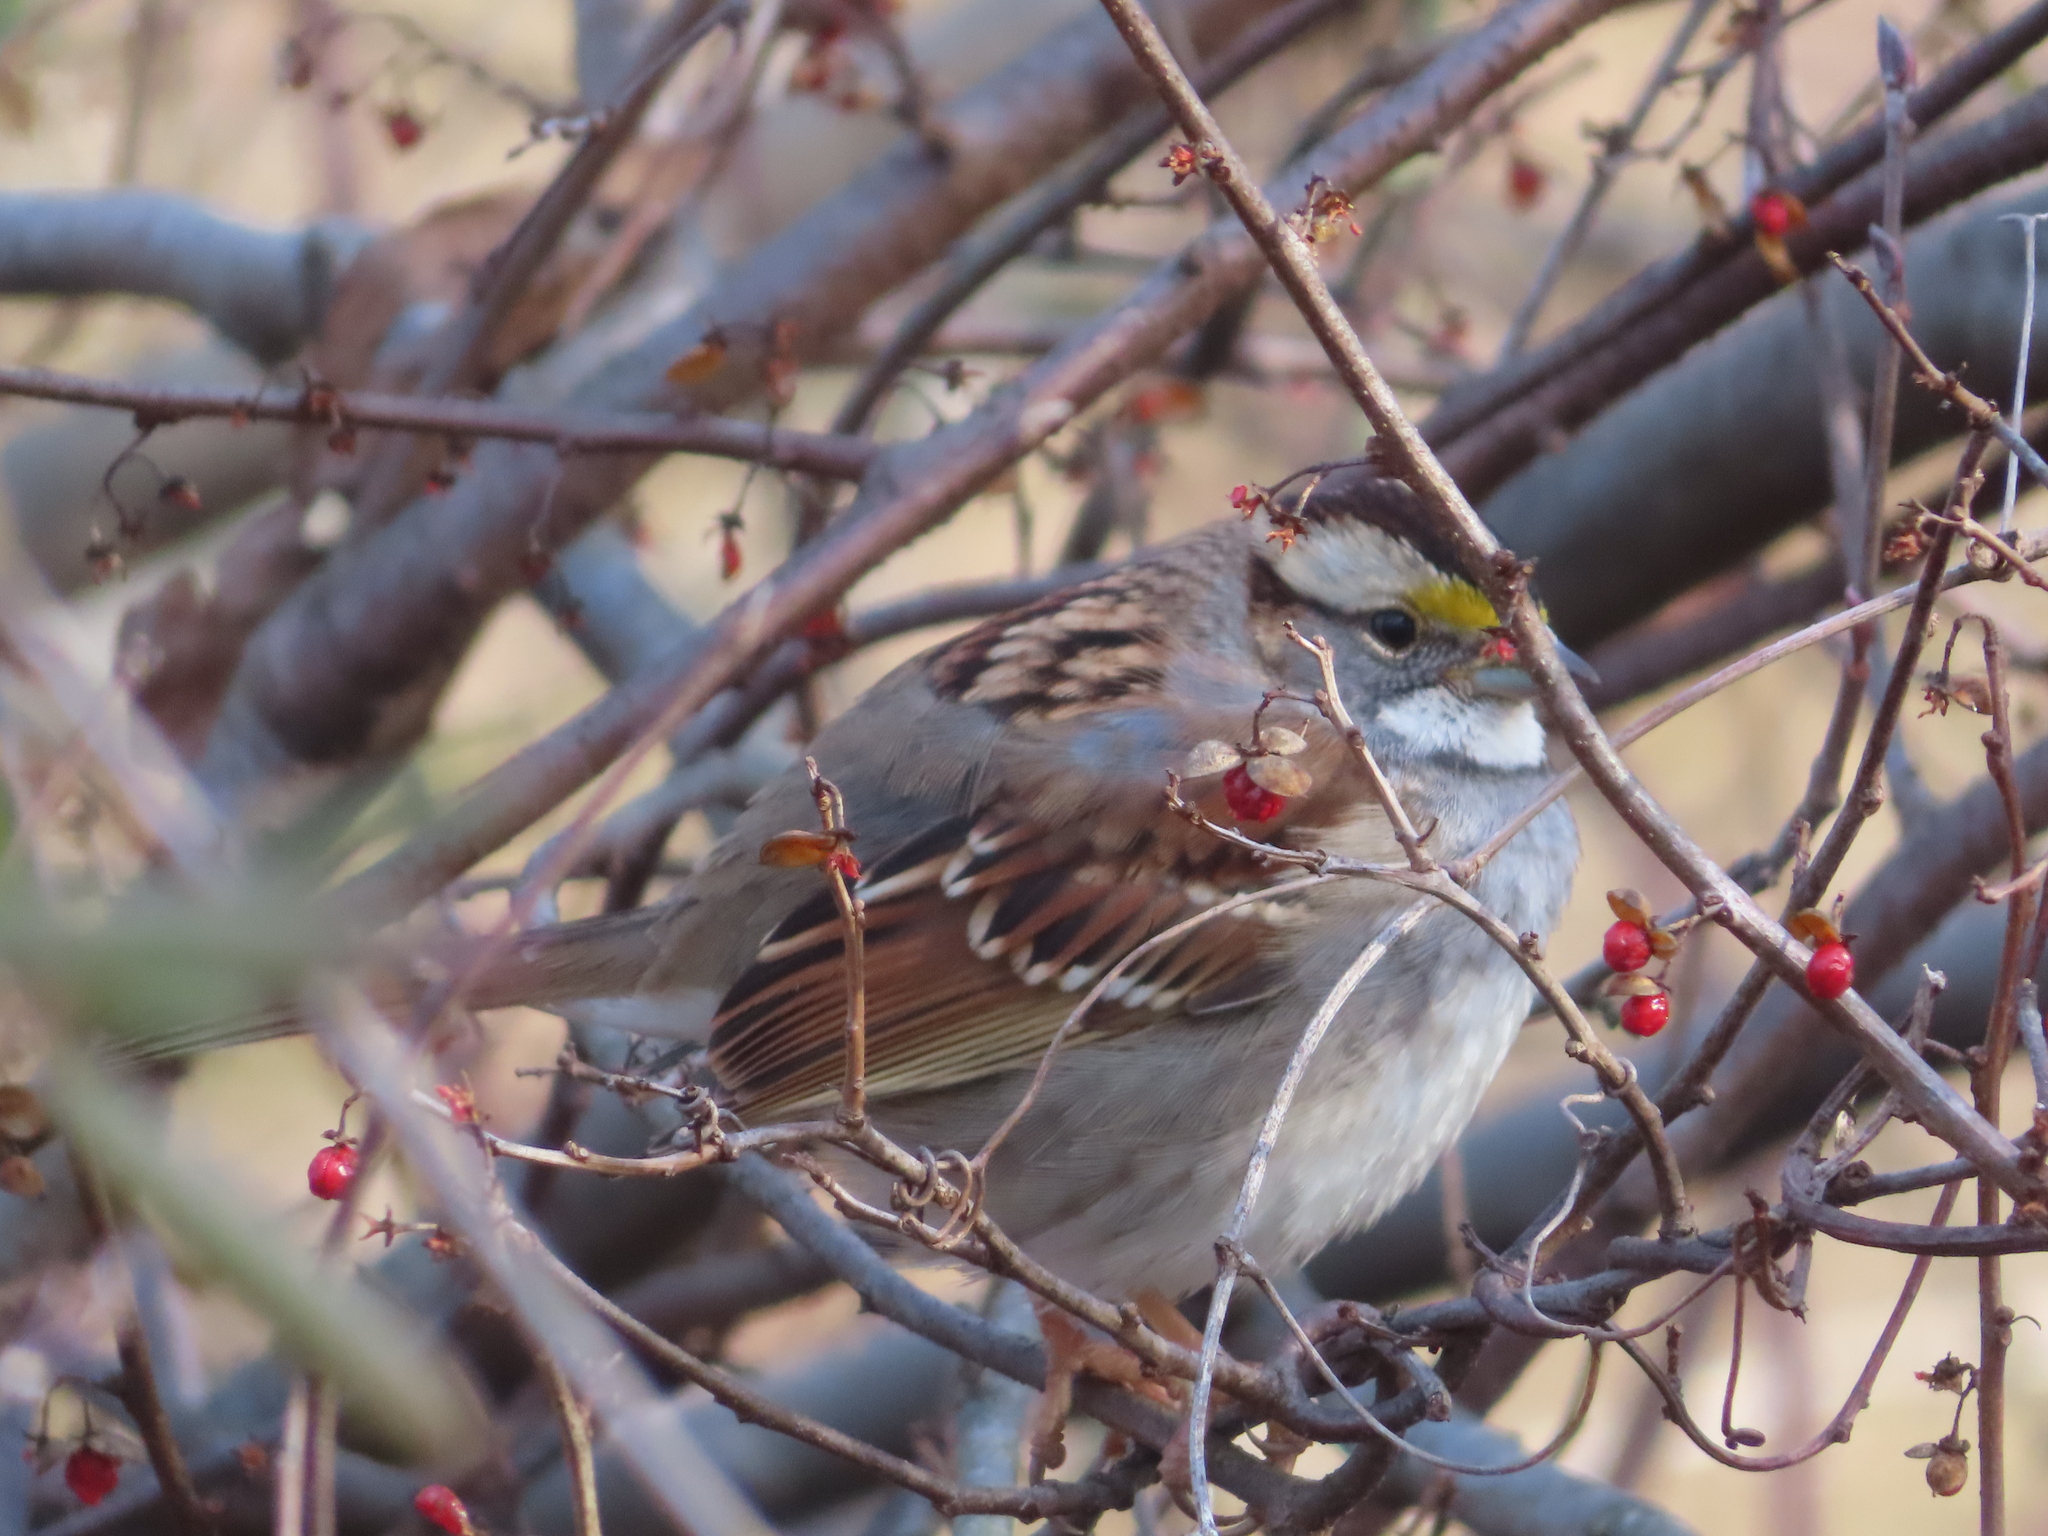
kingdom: Animalia
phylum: Chordata
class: Aves
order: Passeriformes
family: Passerellidae
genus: Zonotrichia
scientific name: Zonotrichia albicollis
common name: White-throated sparrow
